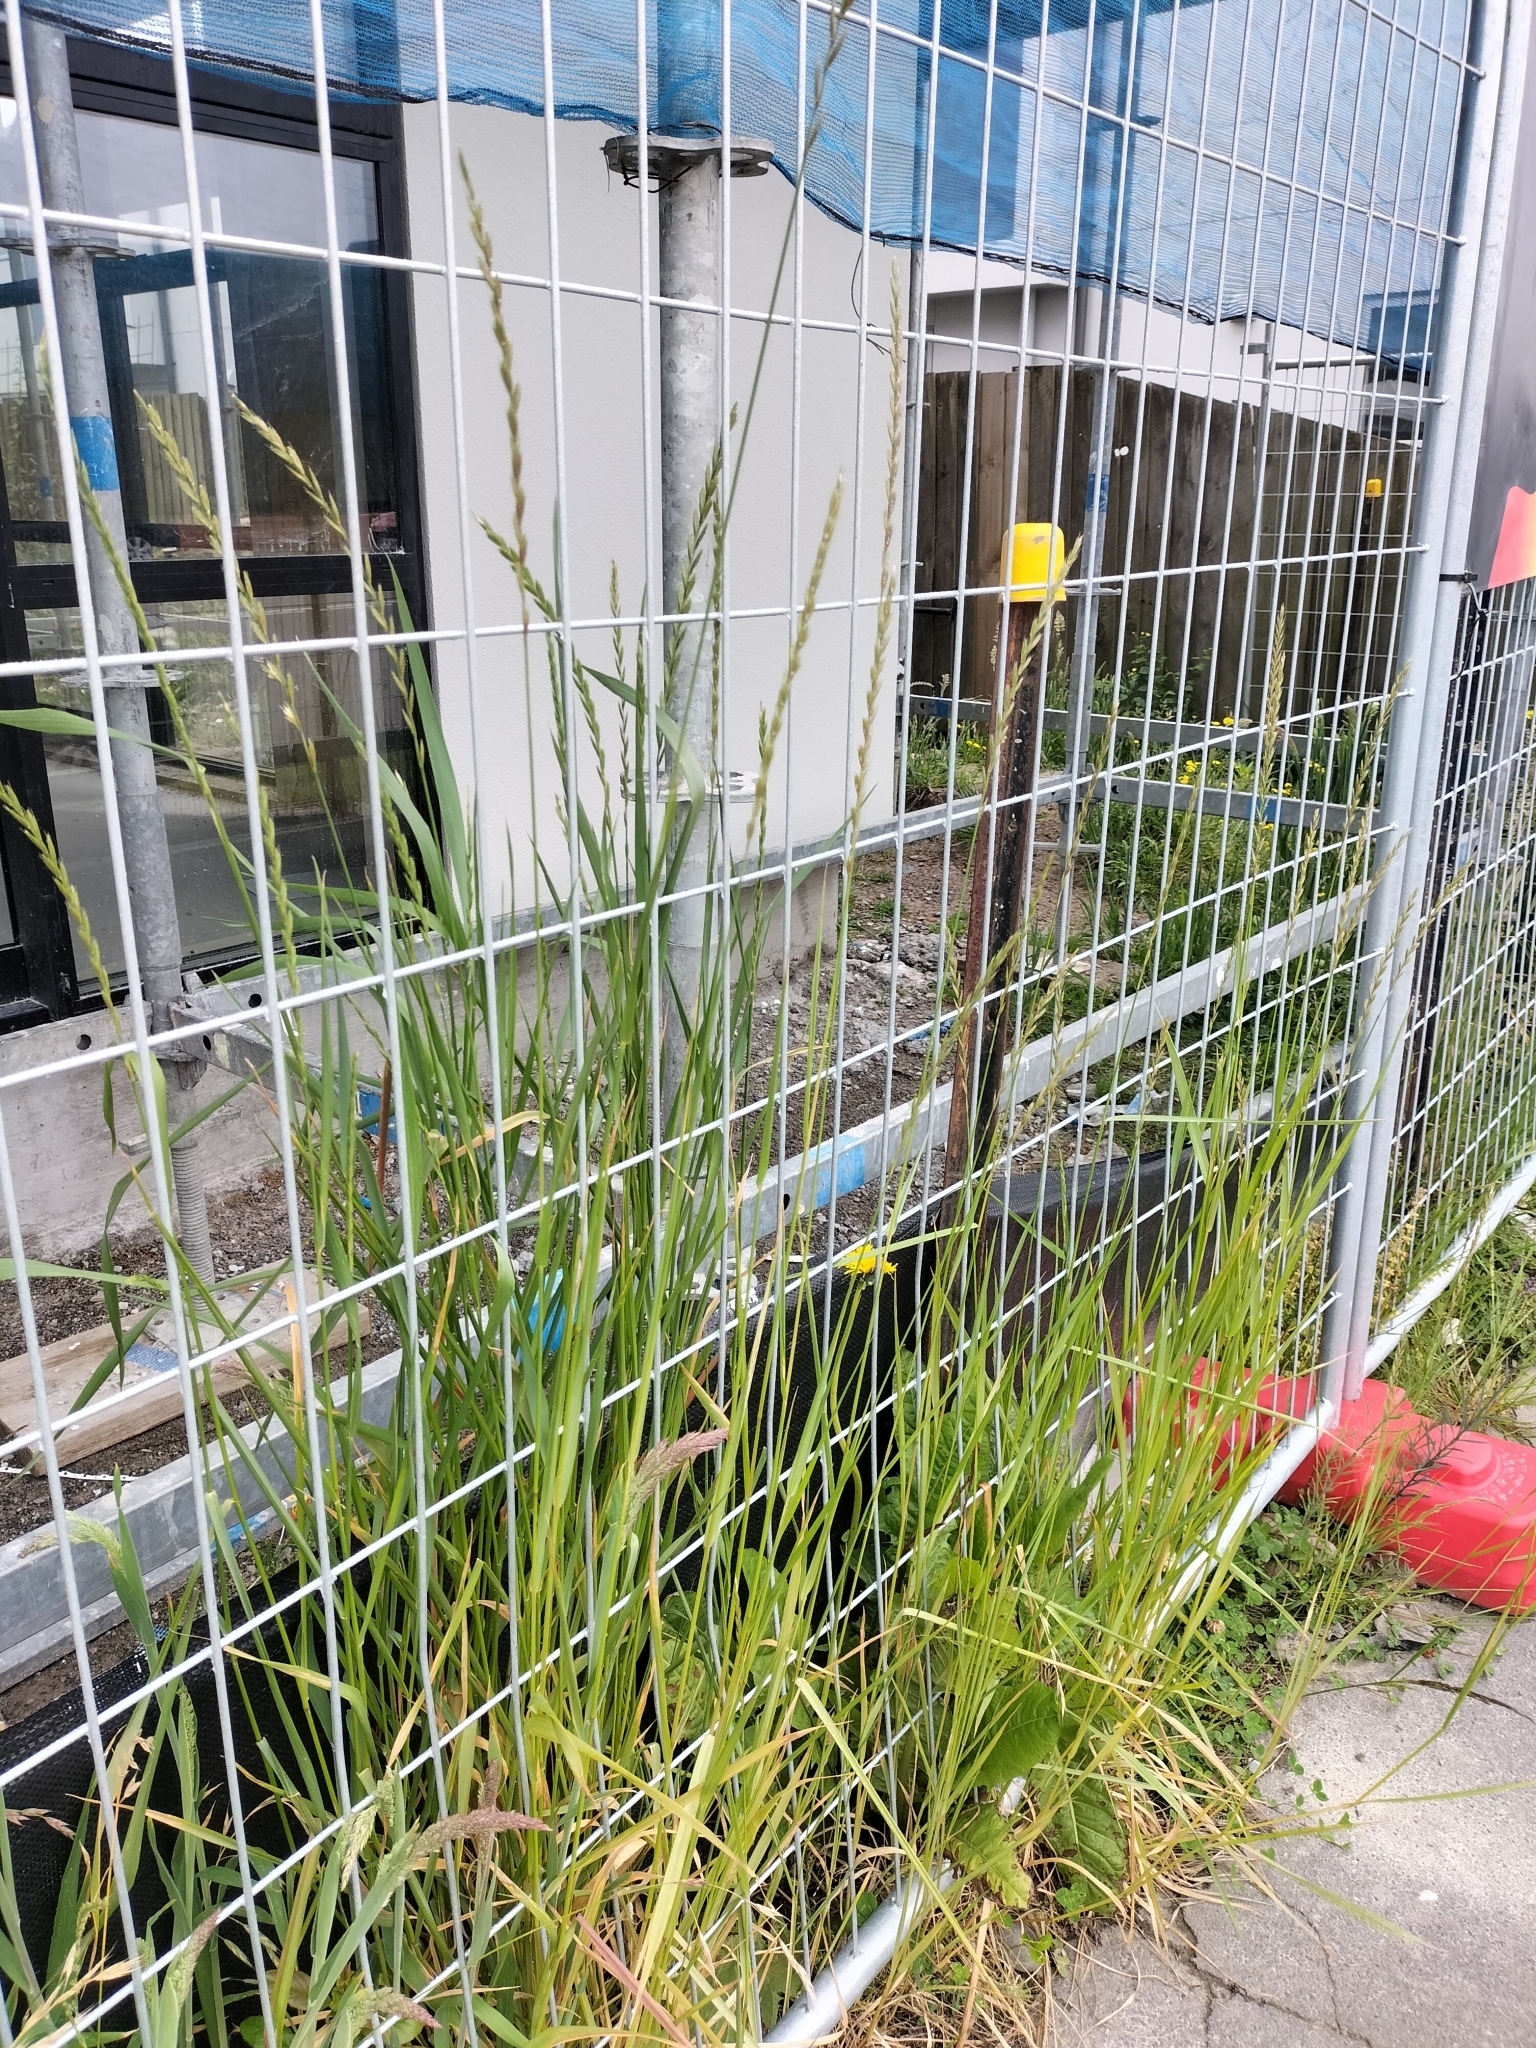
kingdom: Plantae
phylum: Tracheophyta
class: Liliopsida
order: Poales
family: Poaceae
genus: Lolium
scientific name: Lolium perenne
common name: Perennial ryegrass
